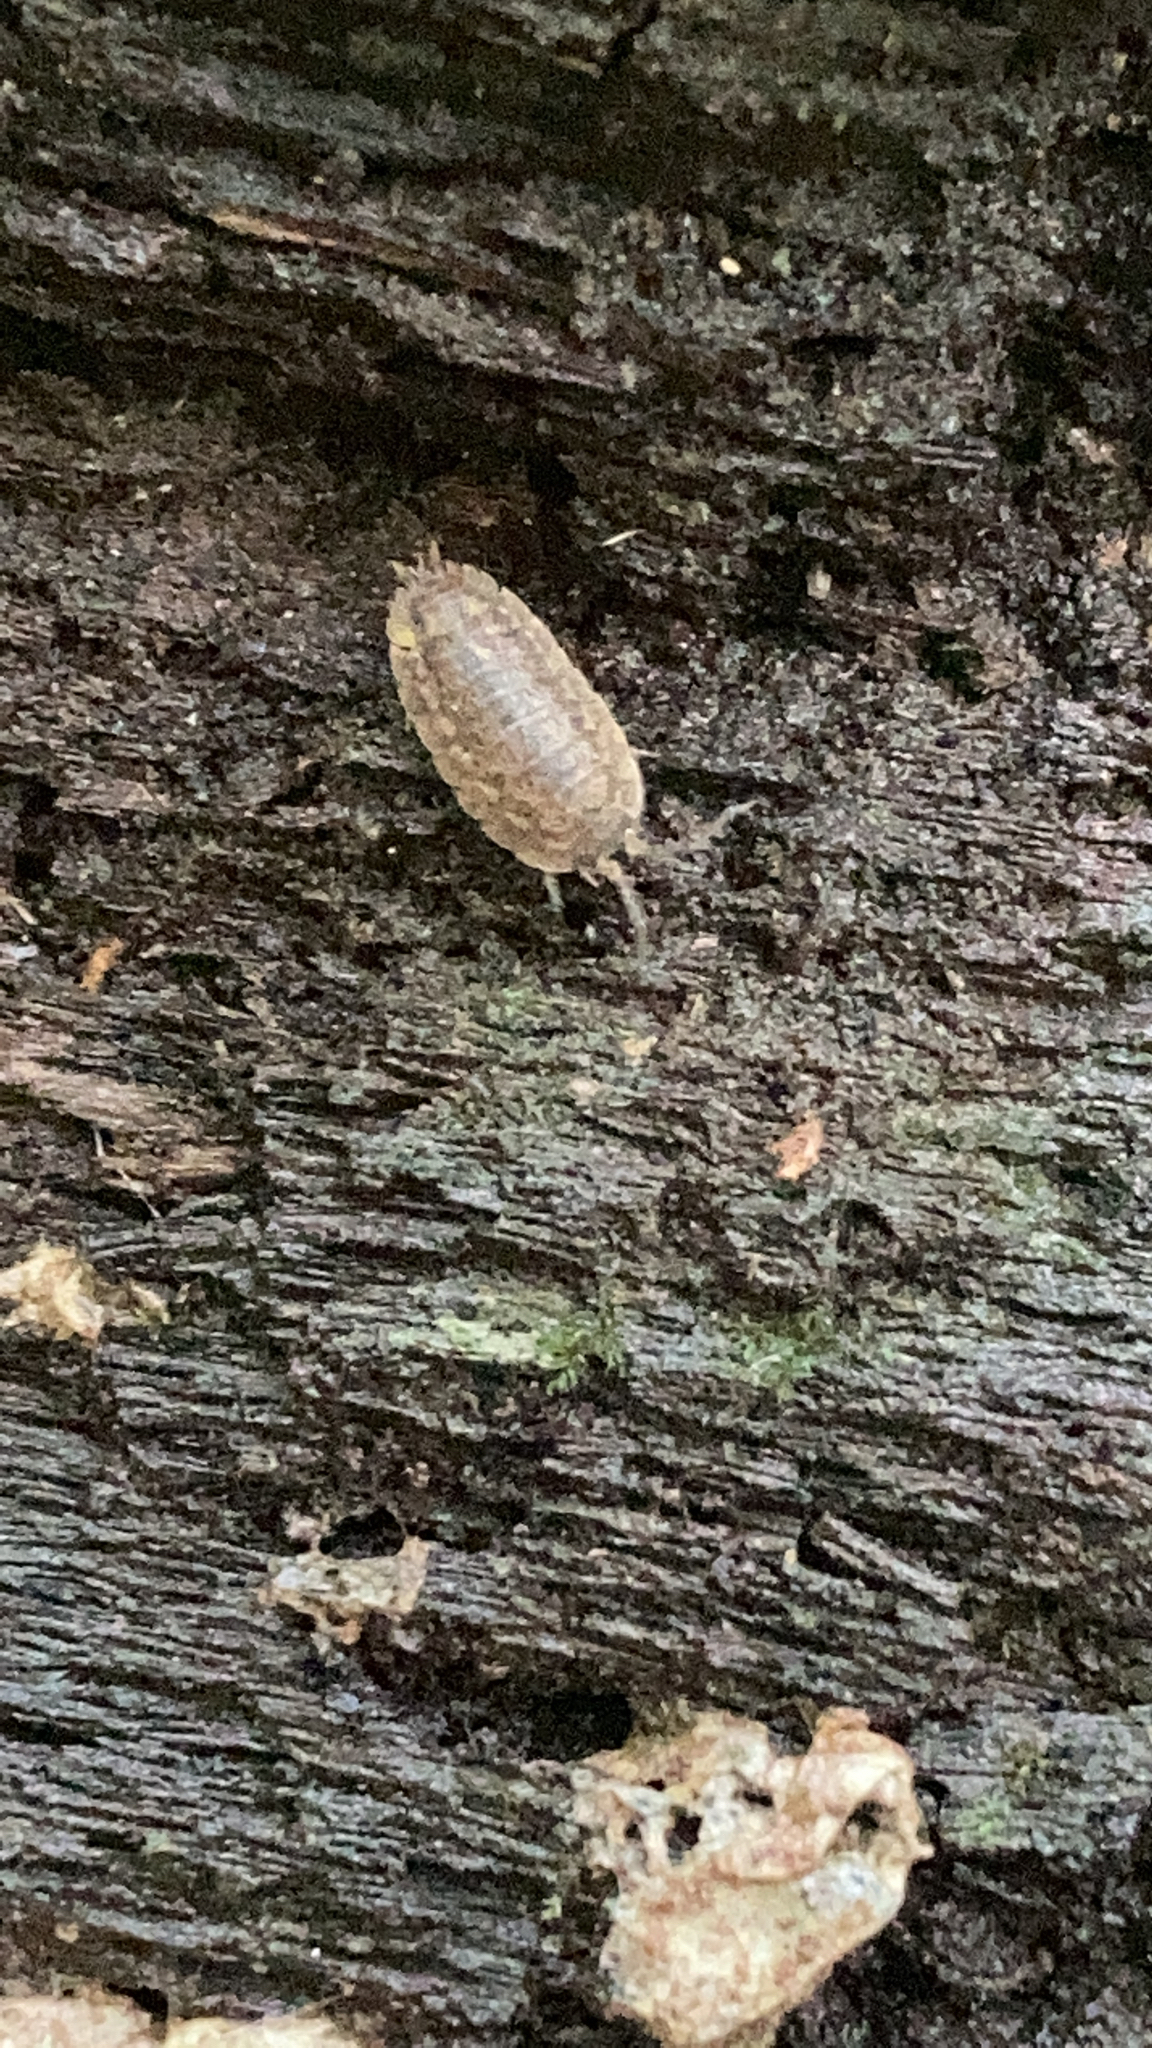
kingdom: Animalia
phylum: Arthropoda
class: Malacostraca
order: Isopoda
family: Trachelipodidae
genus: Trachelipus
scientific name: Trachelipus rathkii
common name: Isopod
